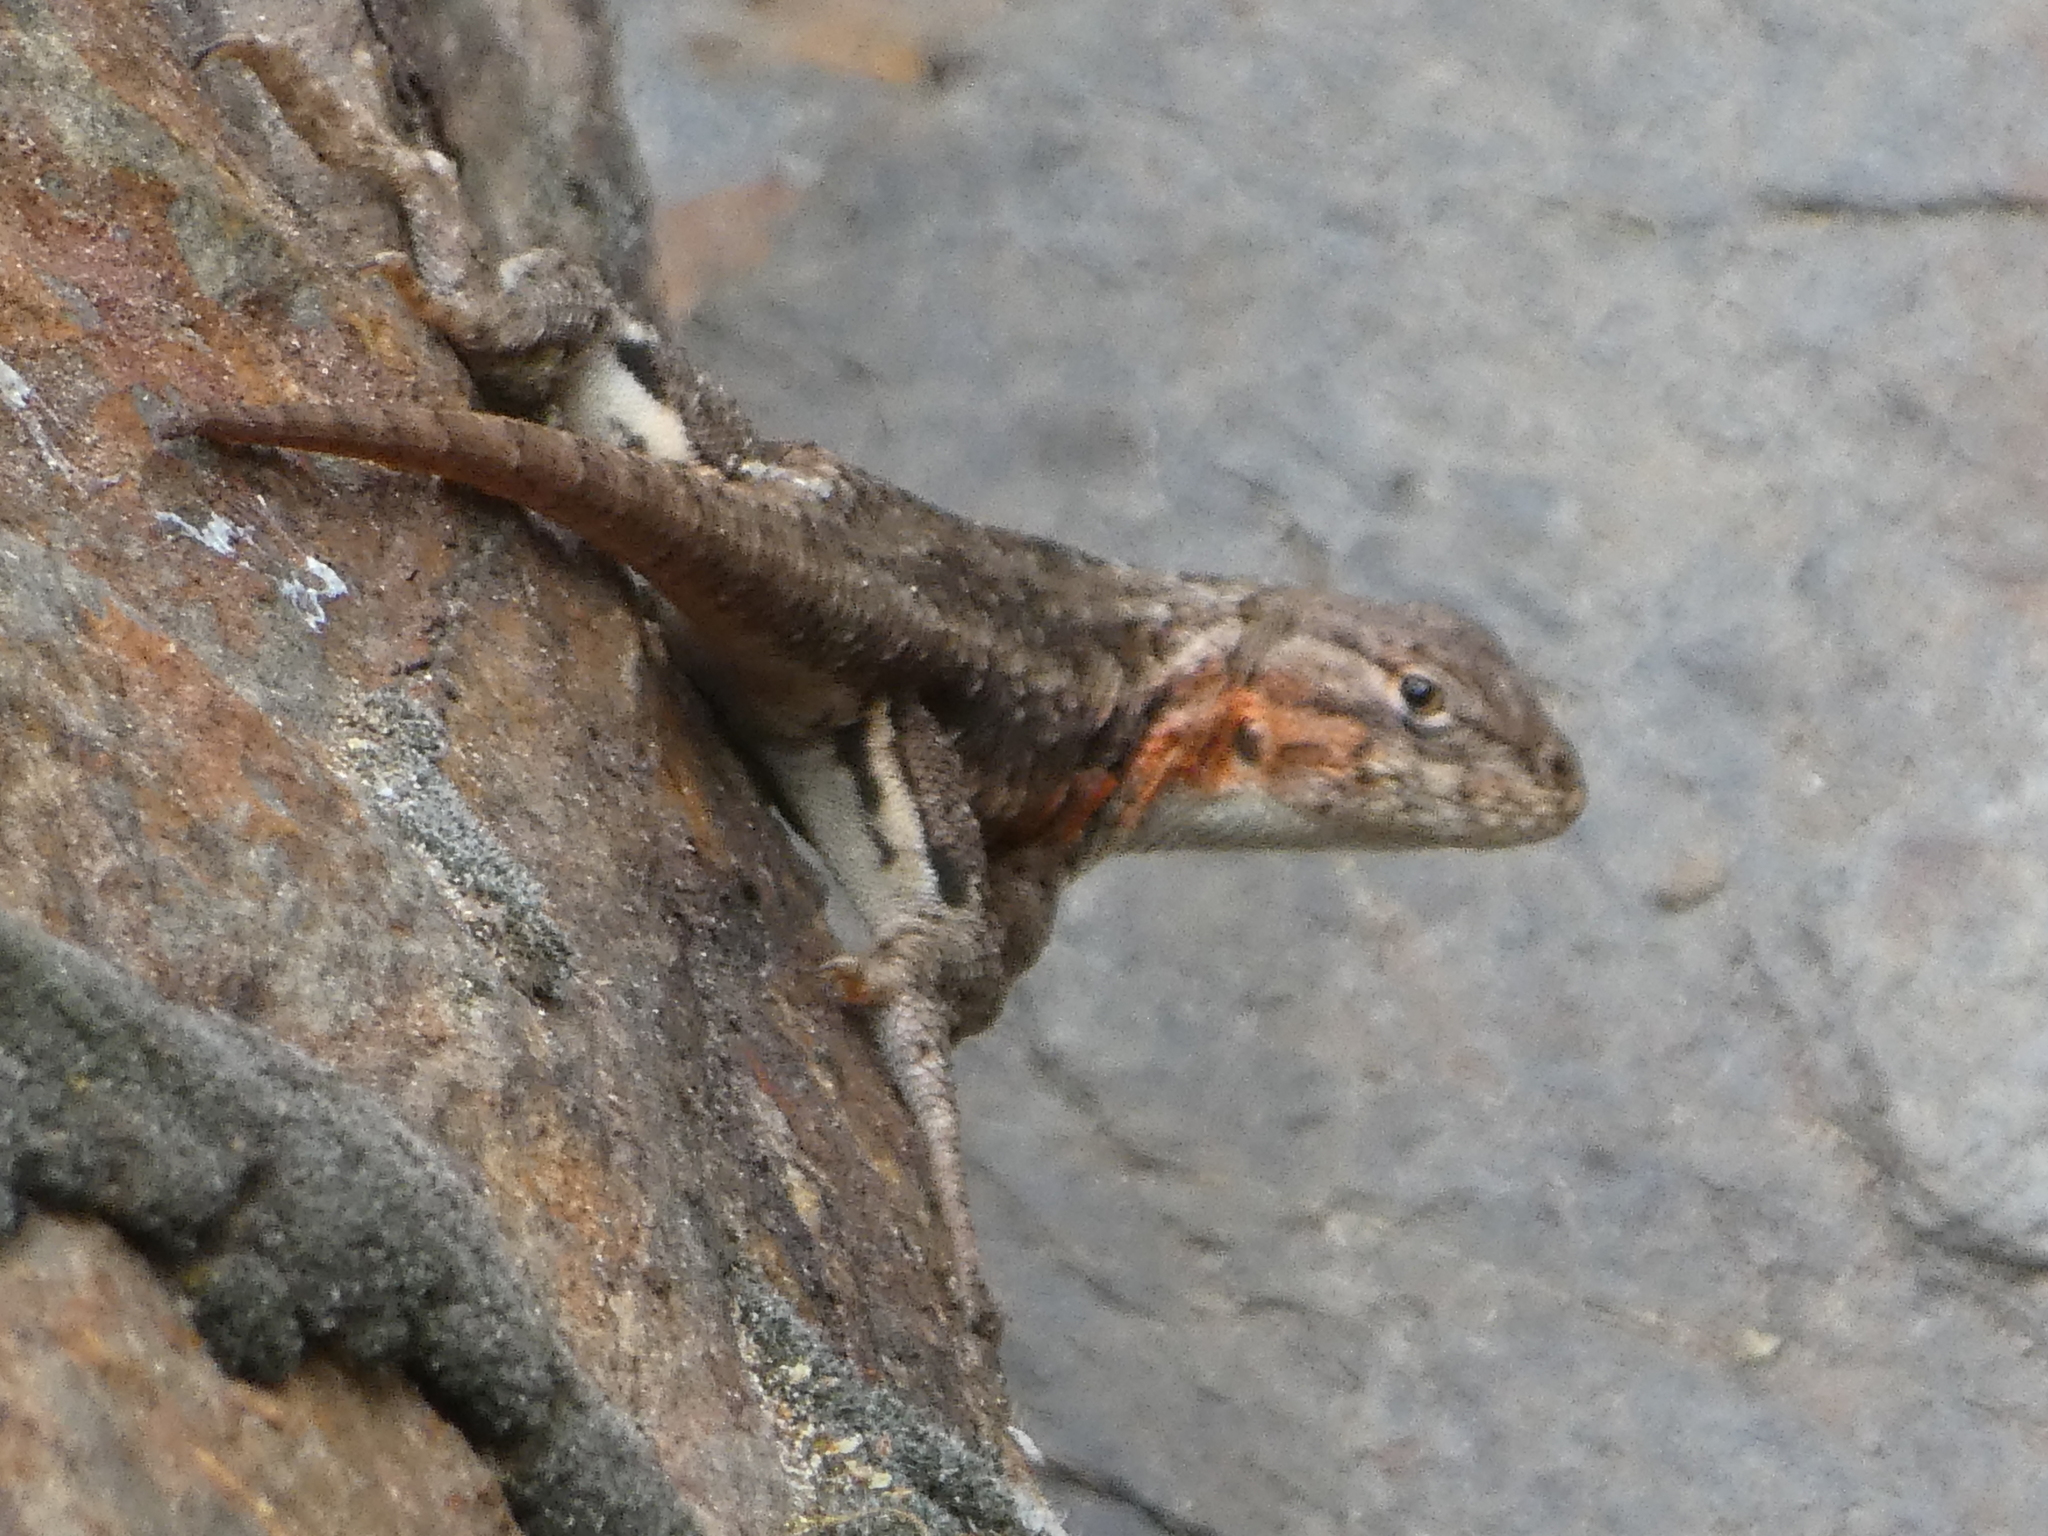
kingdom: Animalia
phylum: Chordata
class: Squamata
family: Phrynosomatidae
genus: Sceloporus
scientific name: Sceloporus graciosus
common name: Sagebrush lizard
